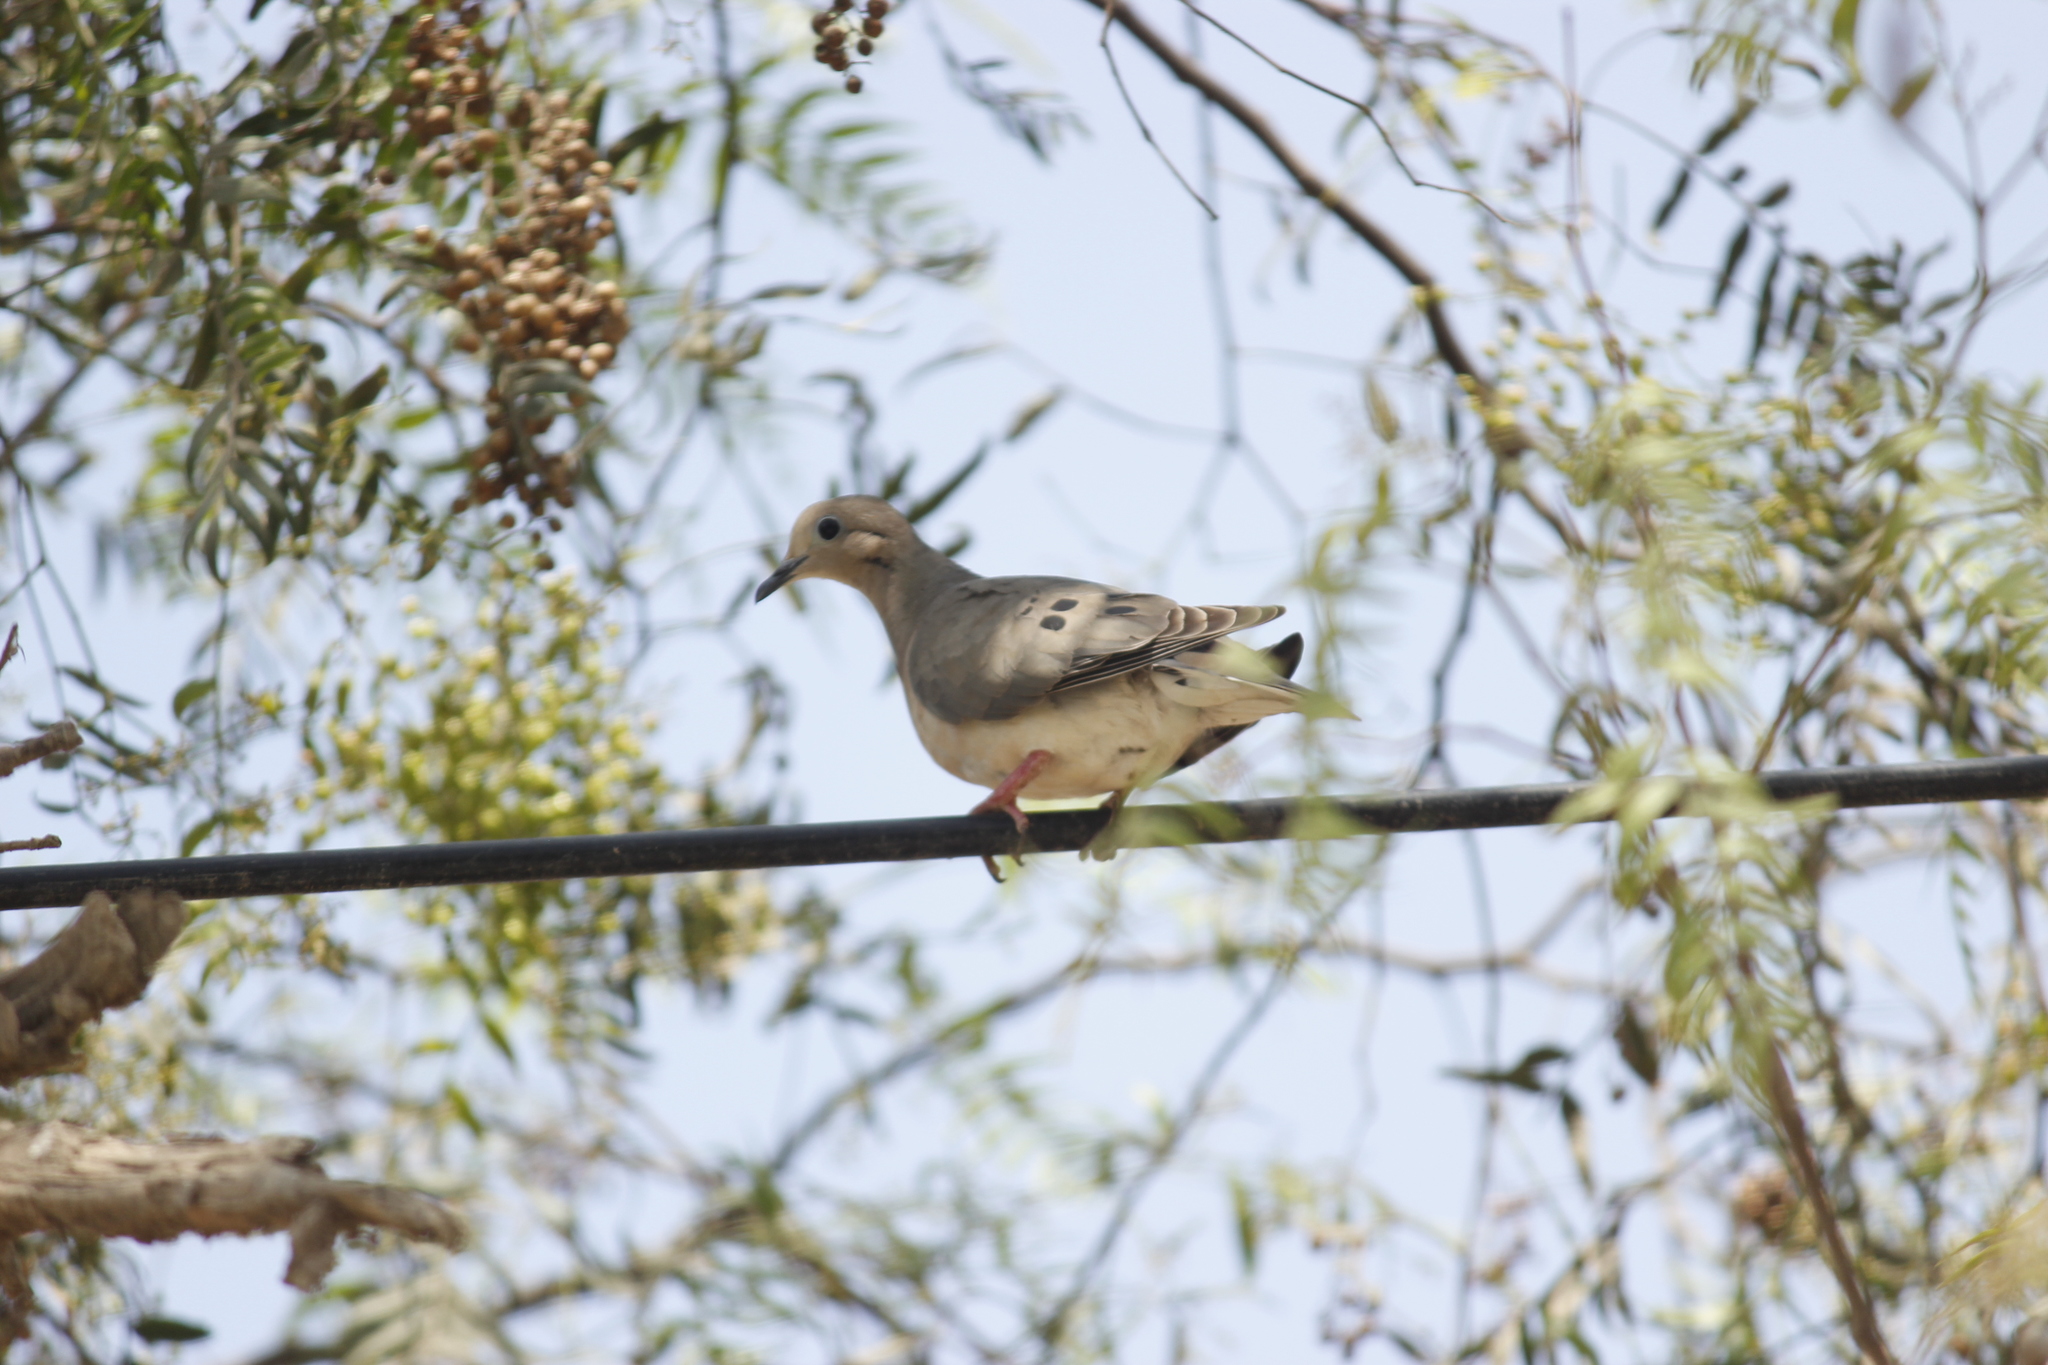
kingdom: Animalia
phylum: Chordata
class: Aves
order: Columbiformes
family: Columbidae
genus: Zenaida
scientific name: Zenaida auriculata
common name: Eared dove
